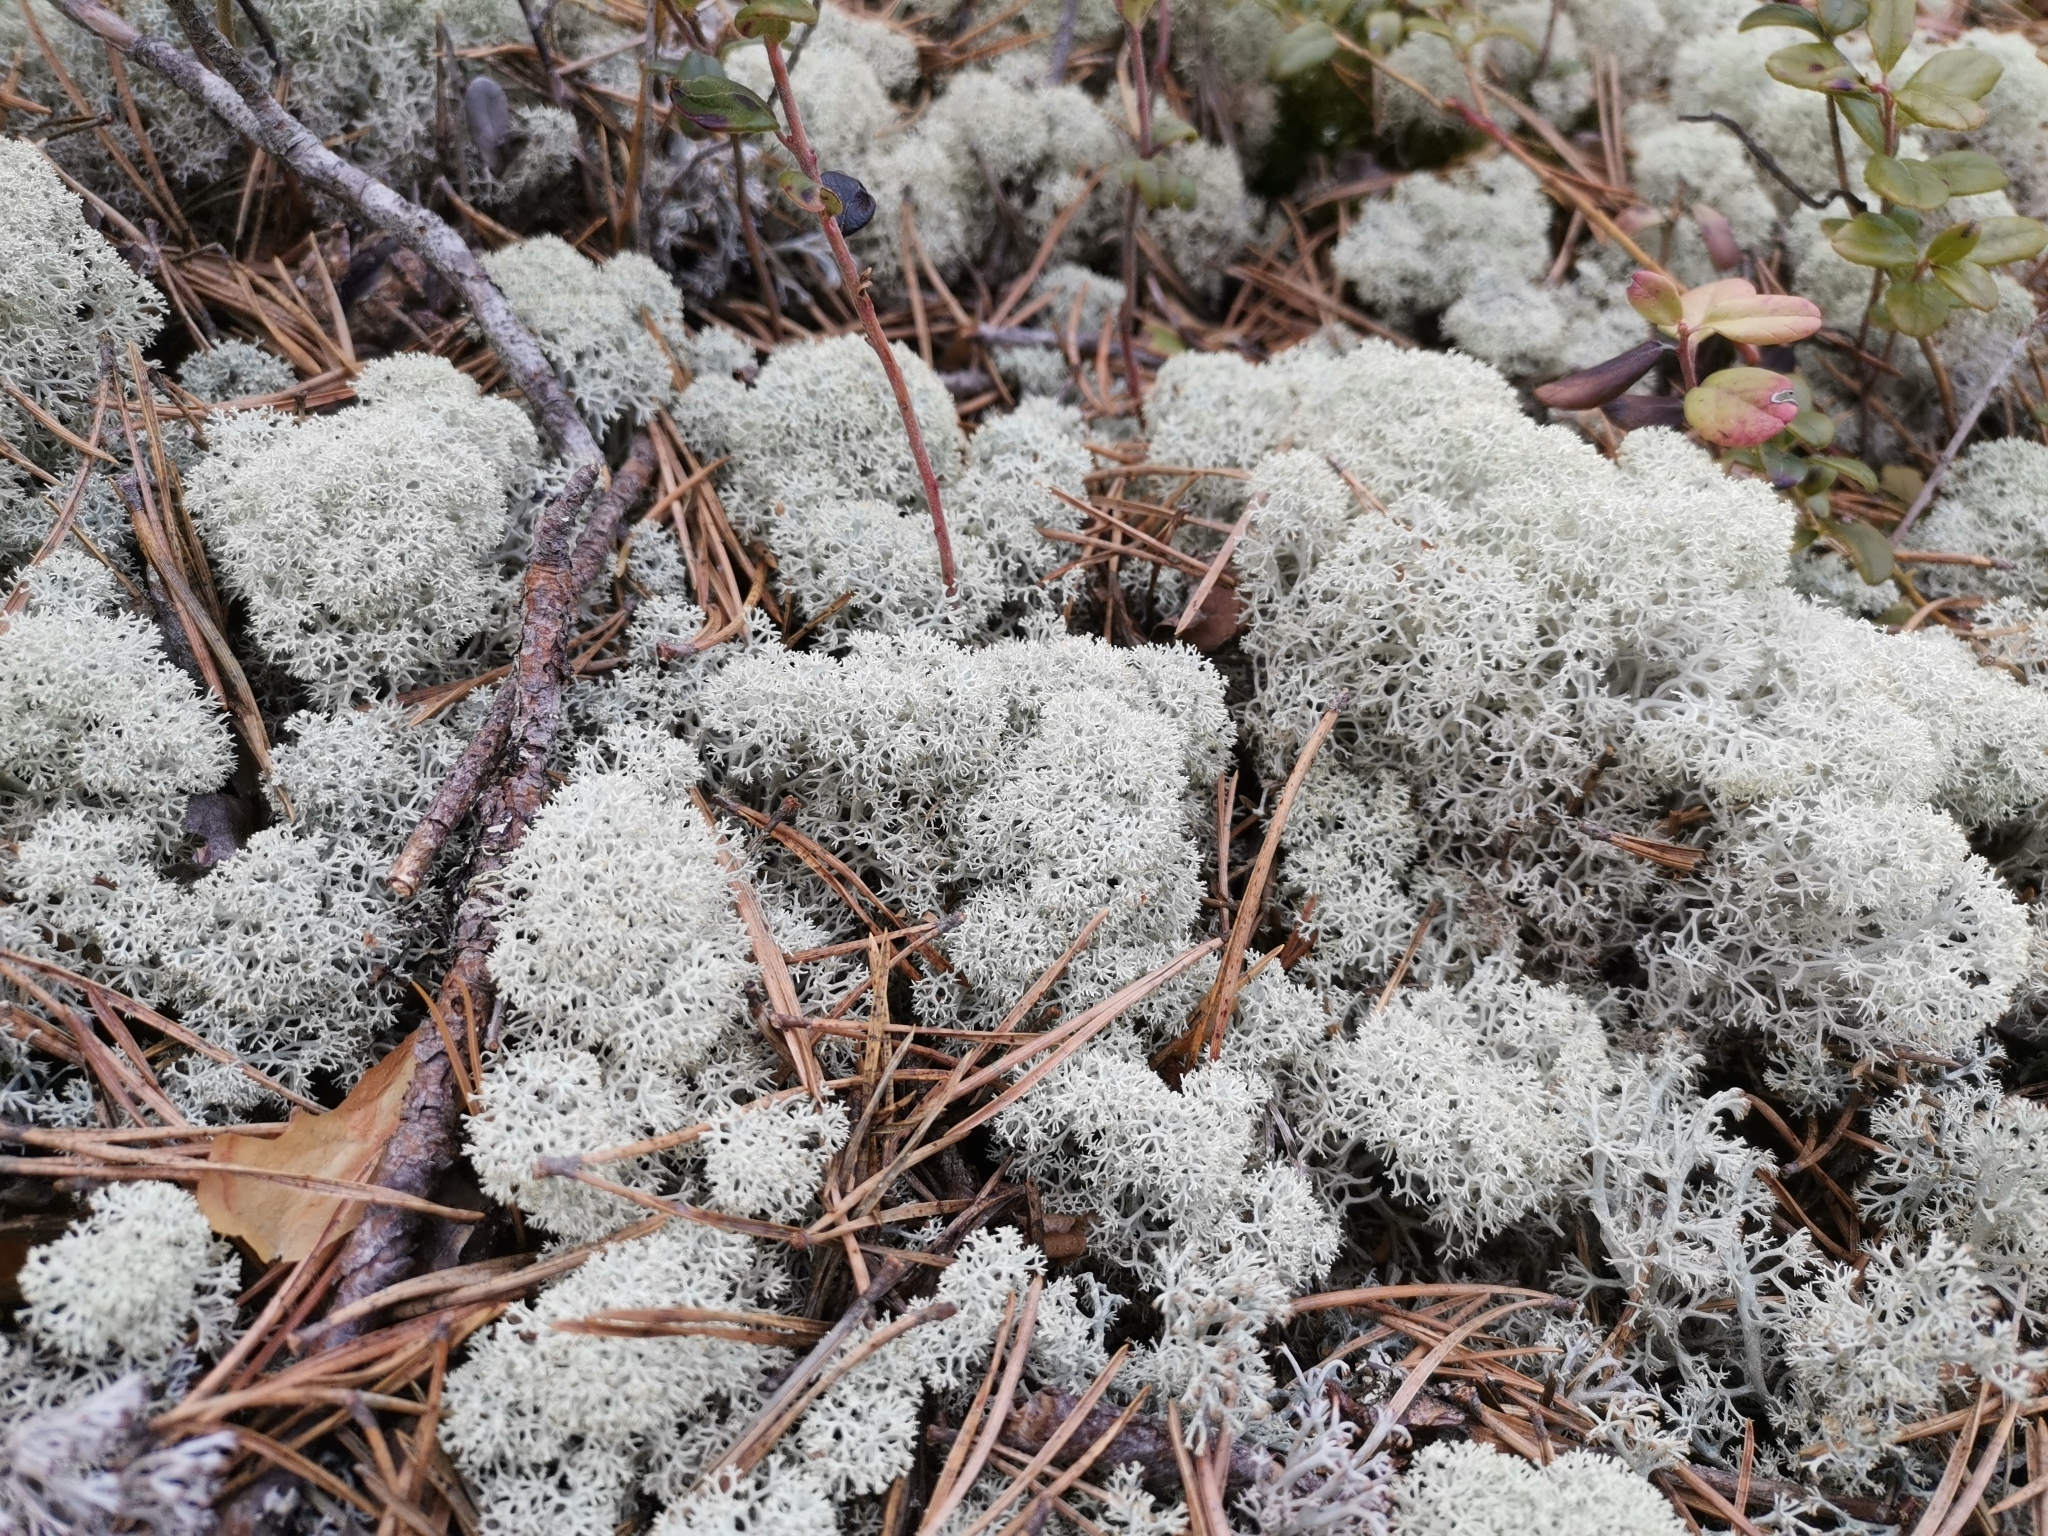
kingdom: Fungi
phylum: Ascomycota
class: Lecanoromycetes
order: Lecanorales
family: Cladoniaceae
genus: Cladonia
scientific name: Cladonia stellaris
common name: Star-tipped reindeer lichen
